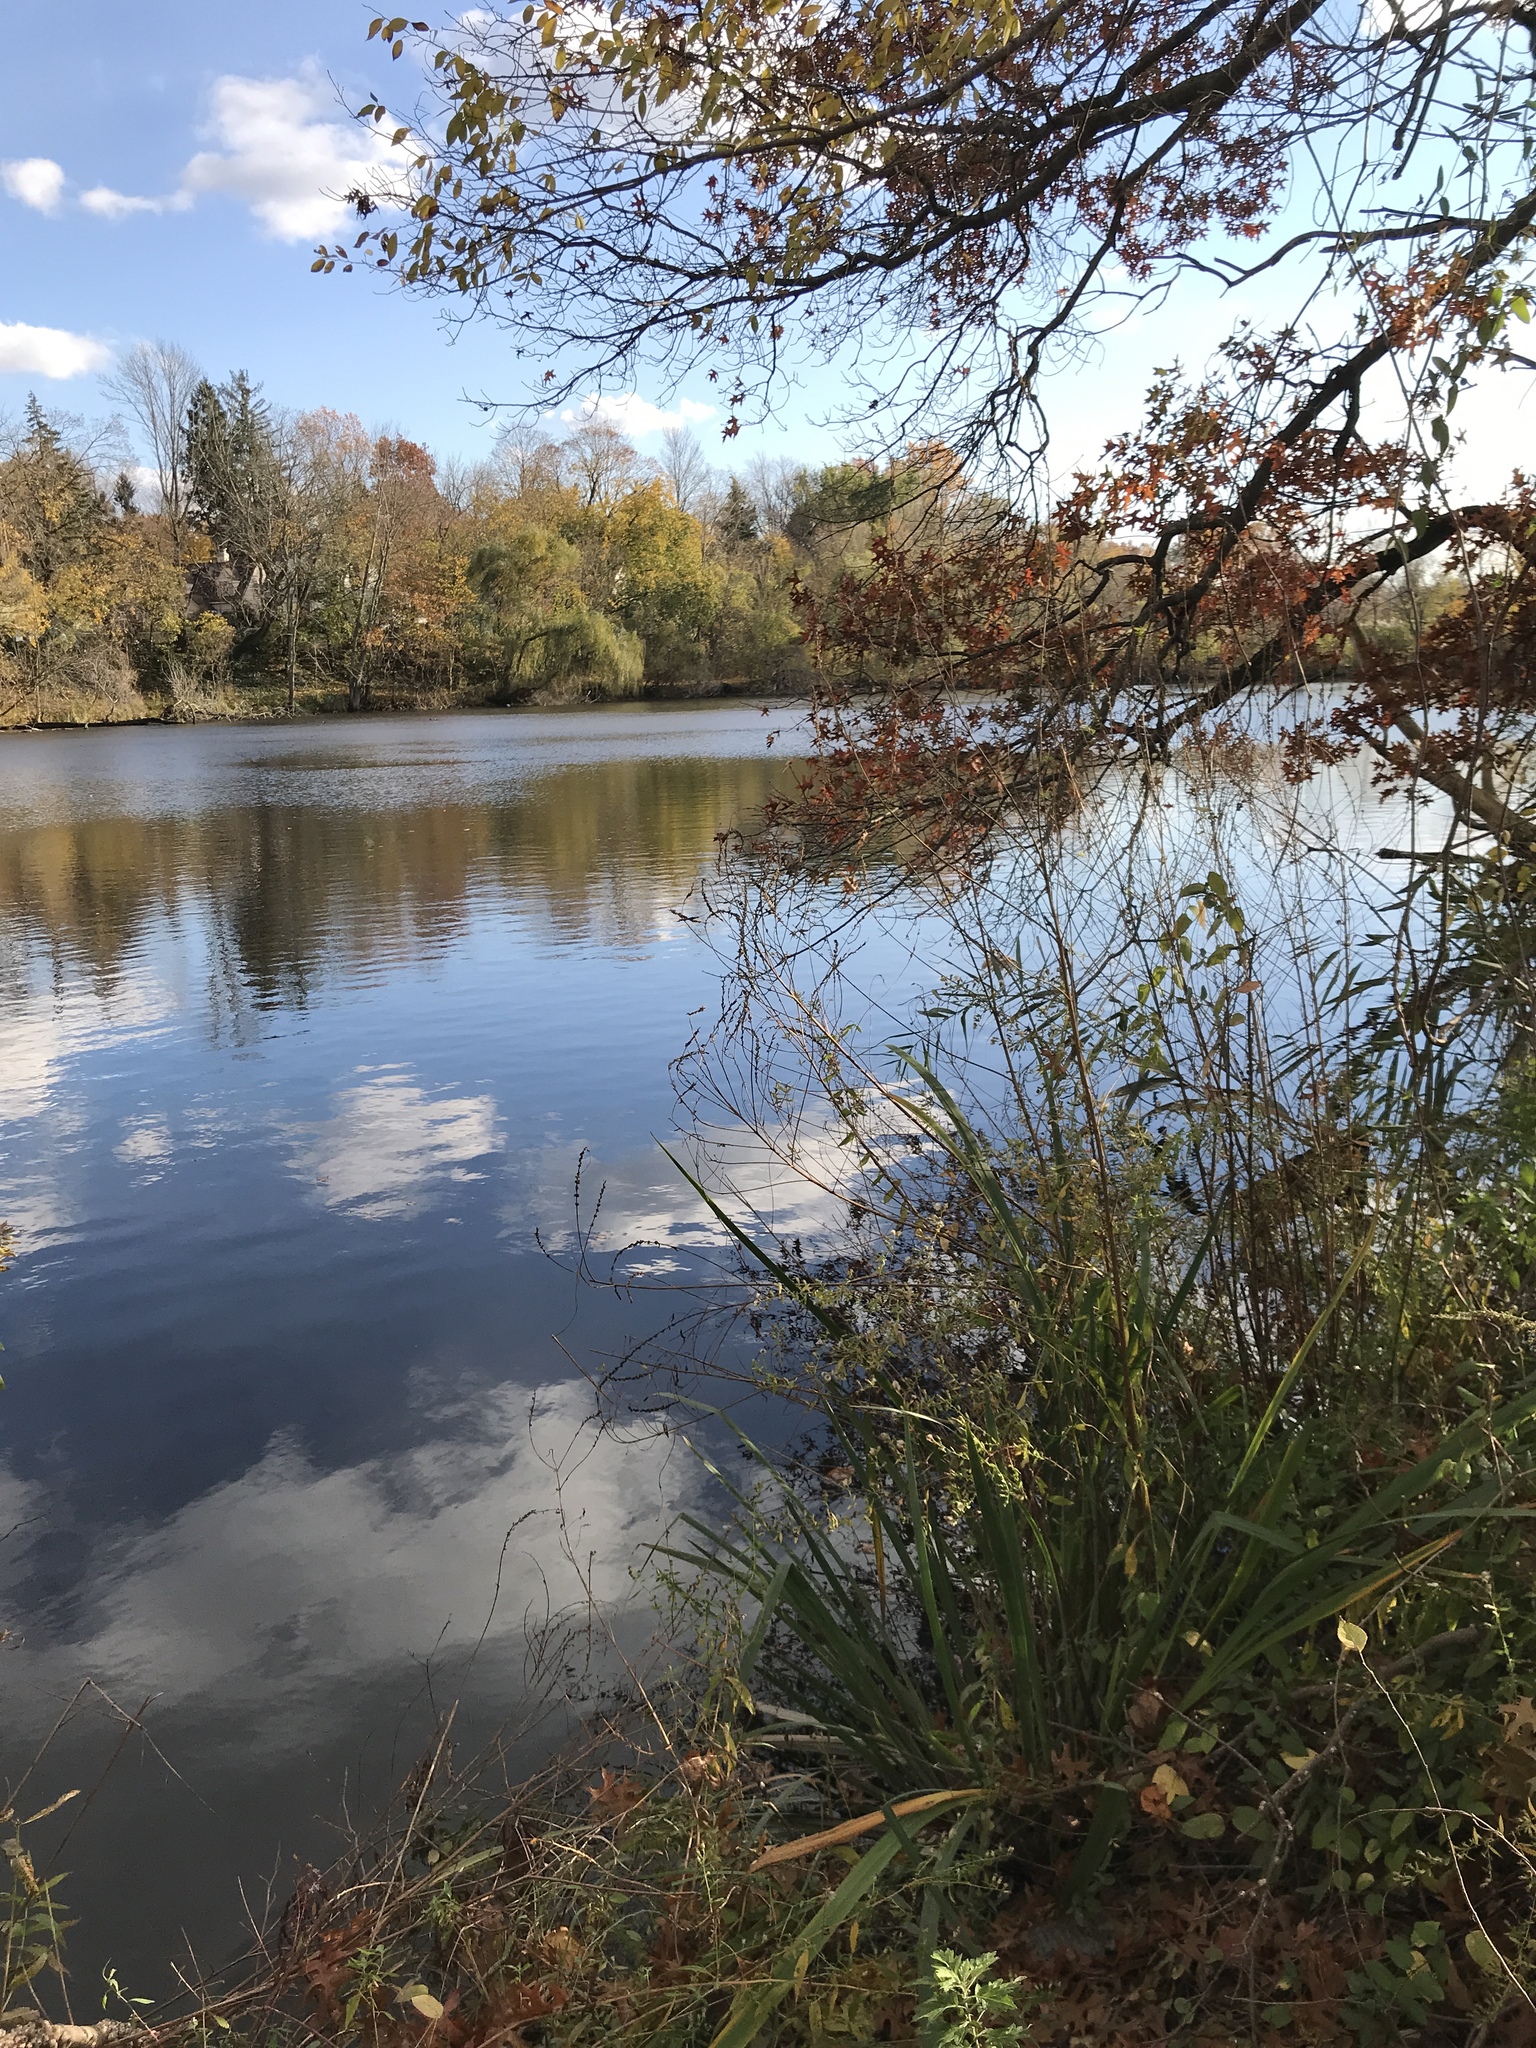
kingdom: Animalia
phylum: Chordata
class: Aves
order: Anseriformes
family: Anatidae
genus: Lophodytes
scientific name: Lophodytes cucullatus
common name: Hooded merganser
